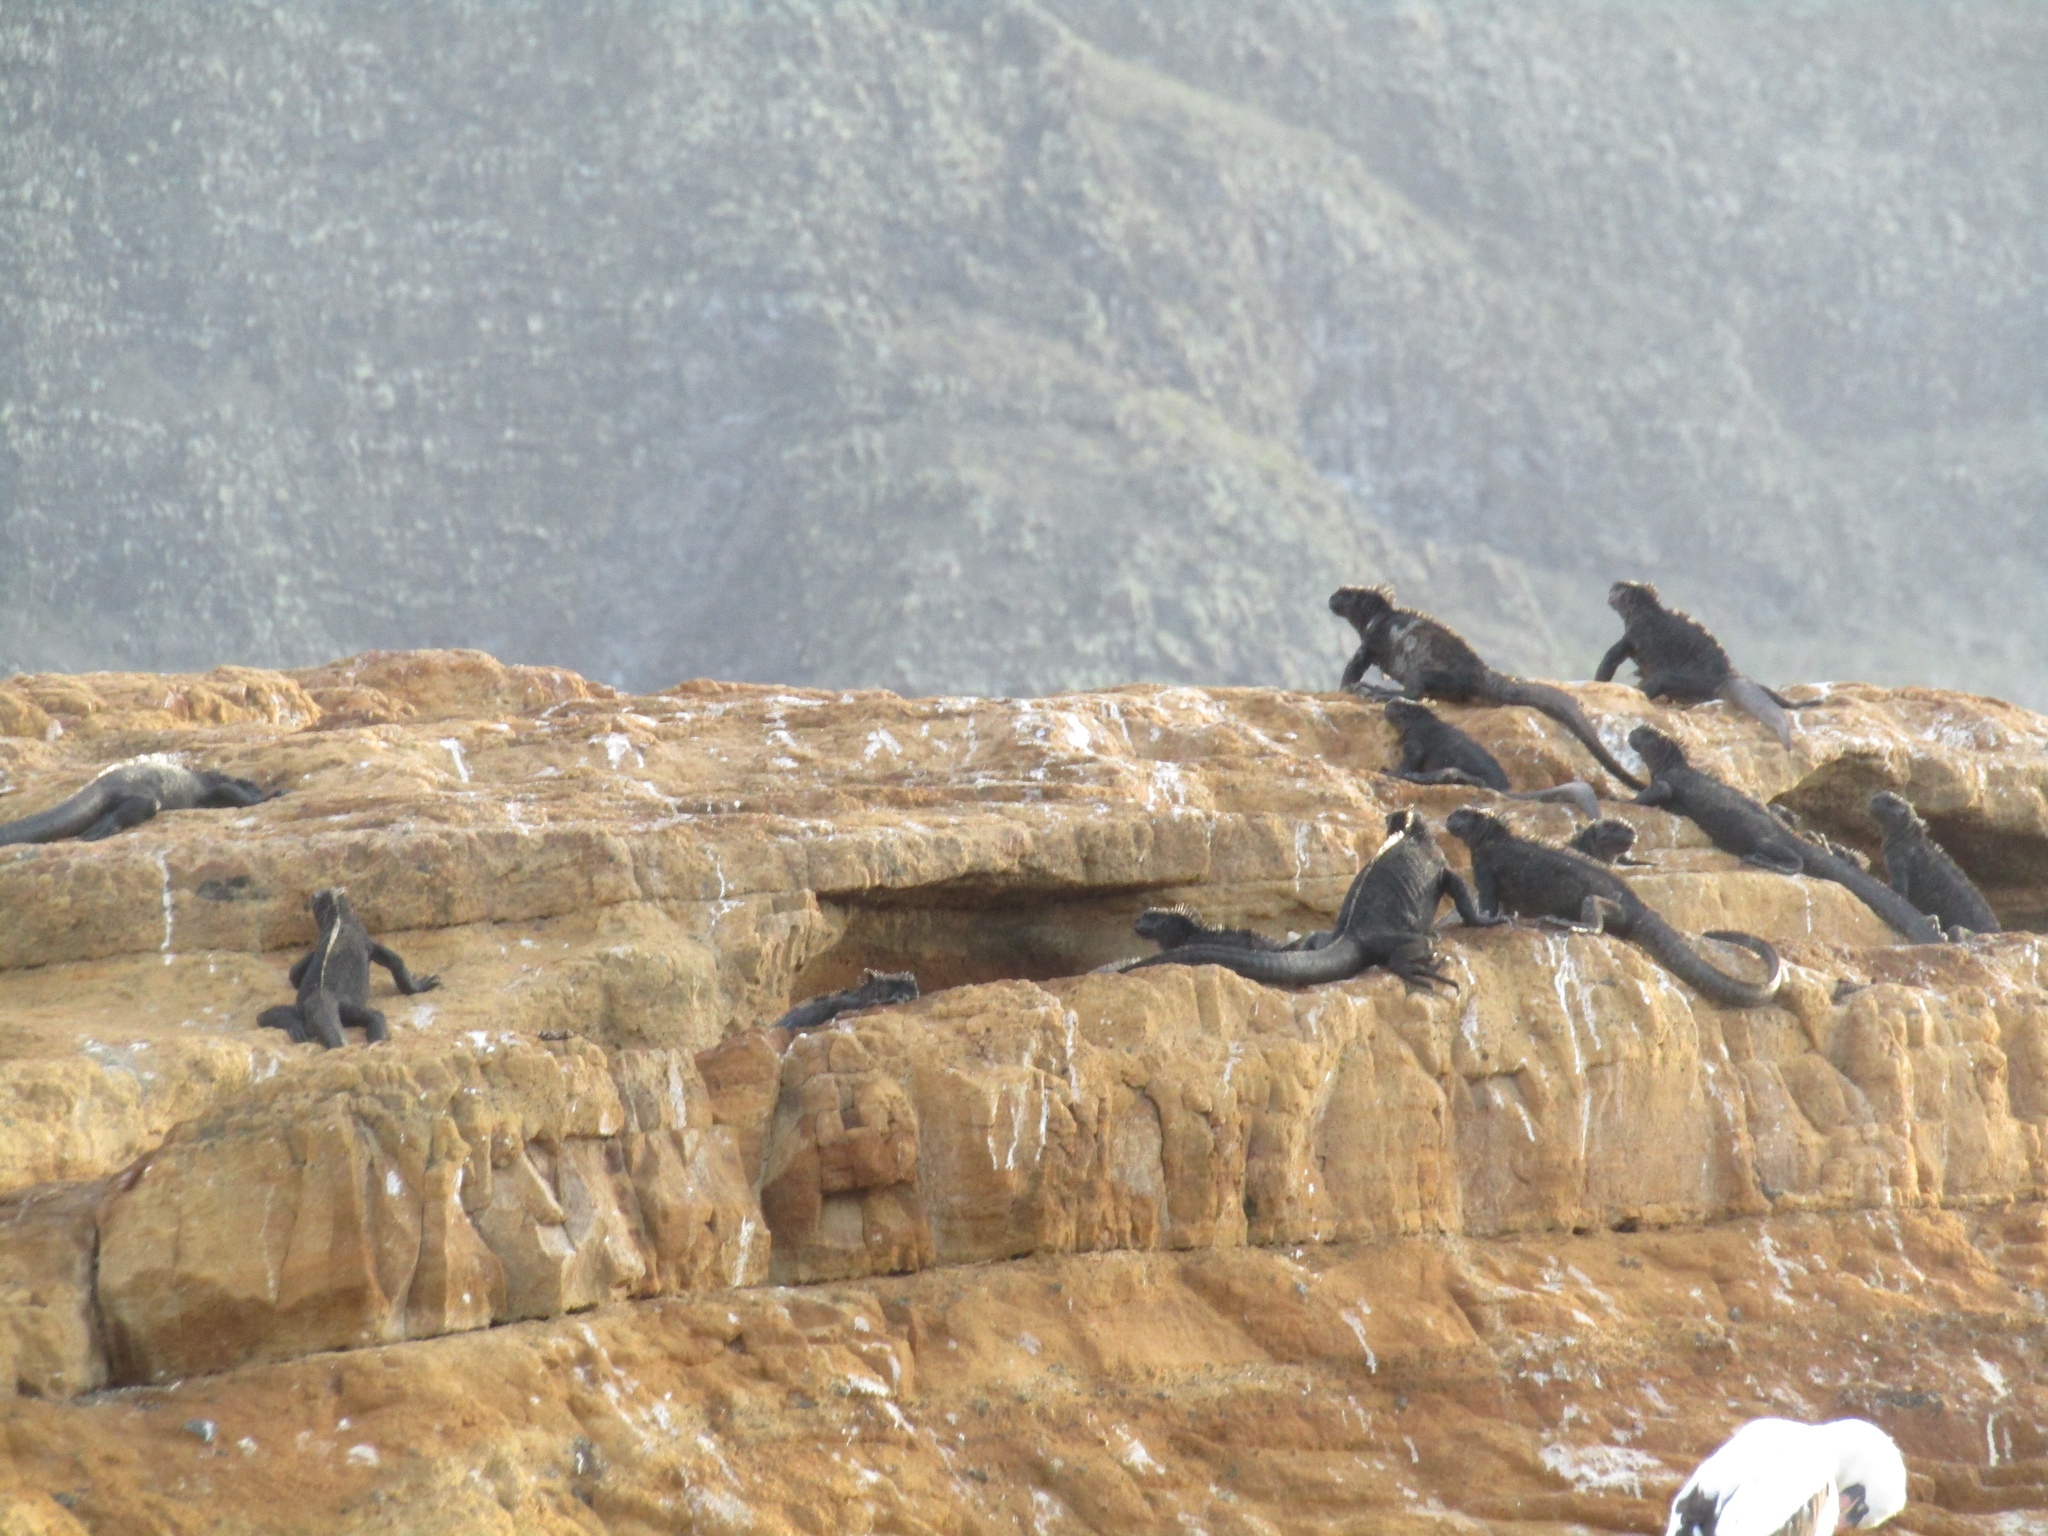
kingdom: Animalia
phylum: Chordata
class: Squamata
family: Iguanidae
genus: Amblyrhynchus
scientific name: Amblyrhynchus cristatus
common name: Marine iguana
